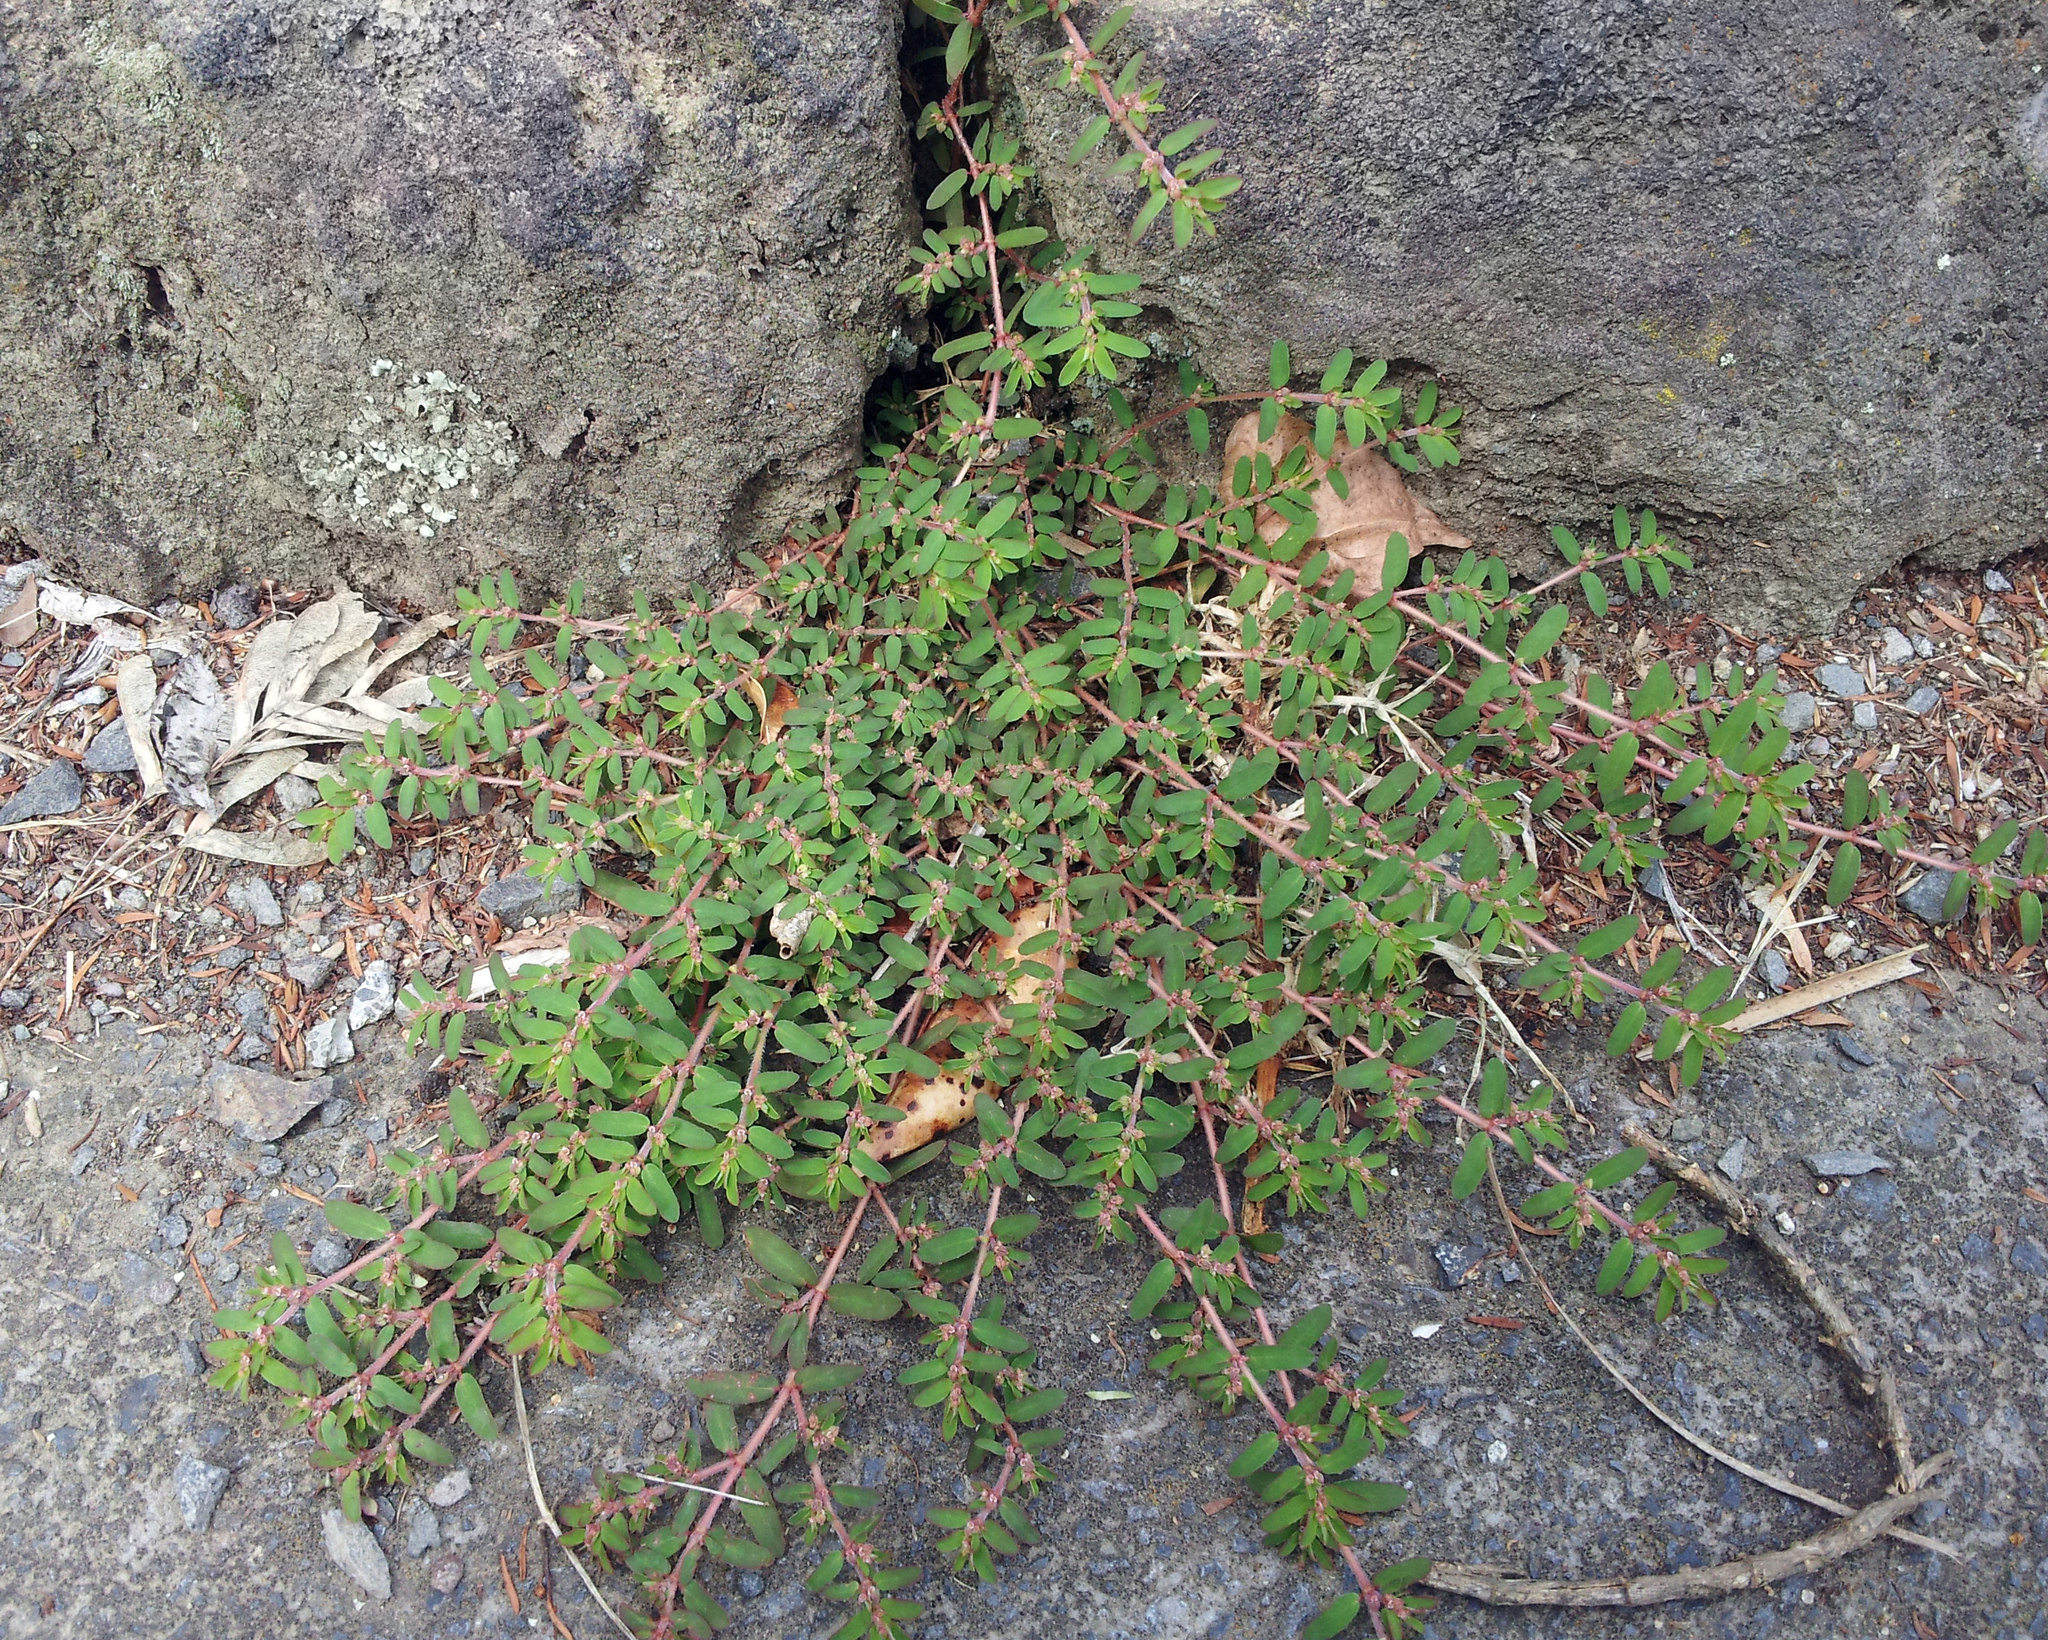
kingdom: Plantae
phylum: Tracheophyta
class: Magnoliopsida
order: Malpighiales
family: Euphorbiaceae
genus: Euphorbia
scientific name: Euphorbia maculata
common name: Spotted spurge
